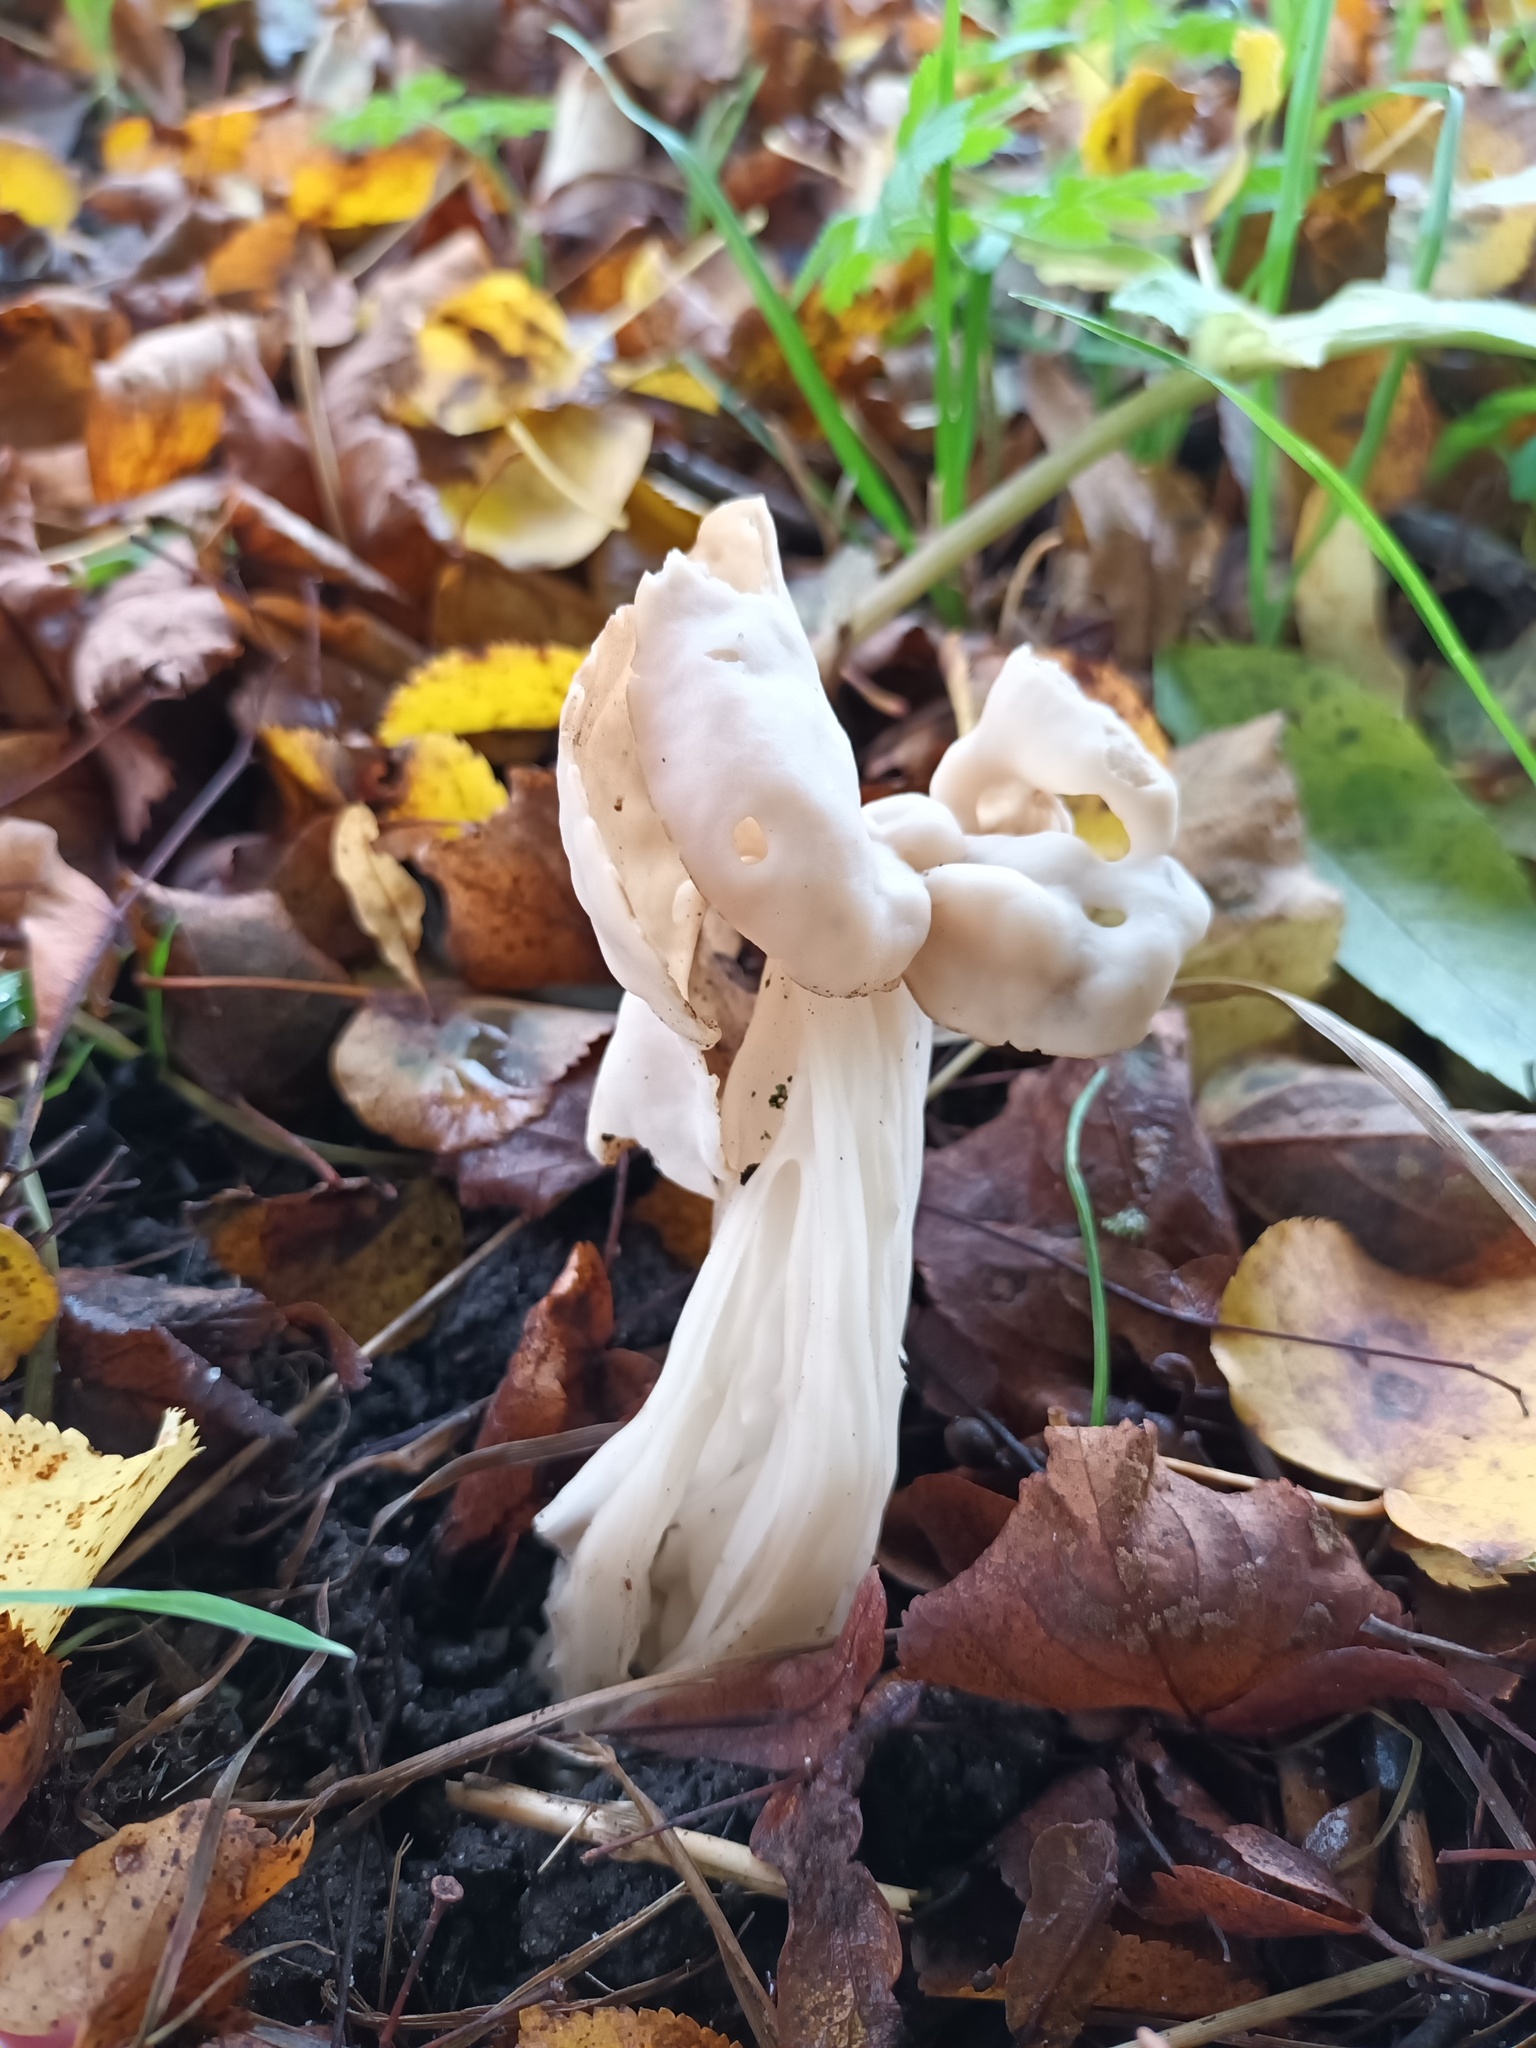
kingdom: Fungi
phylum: Ascomycota
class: Pezizomycetes
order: Pezizales
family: Helvellaceae
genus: Helvella
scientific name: Helvella crispa
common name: White saddle
